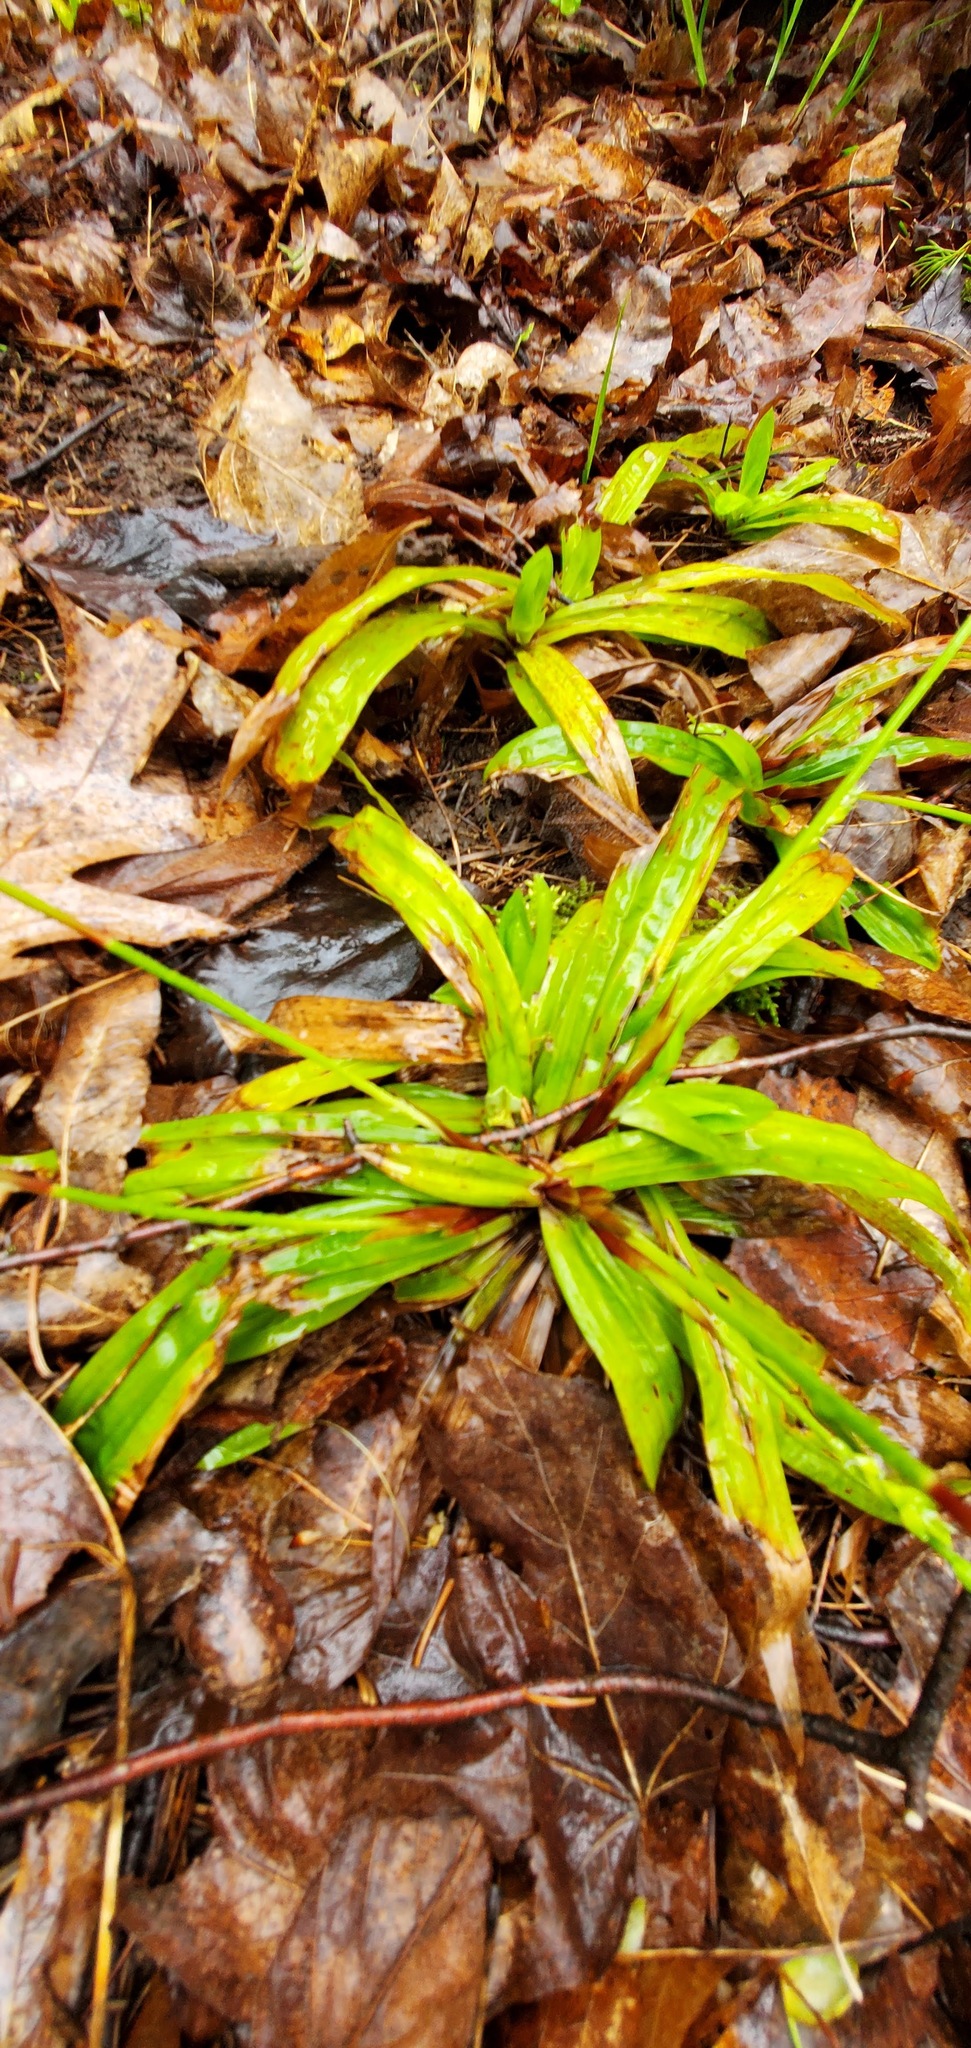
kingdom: Plantae
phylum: Tracheophyta
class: Liliopsida
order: Poales
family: Cyperaceae
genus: Carex
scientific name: Carex plantaginea
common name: Plantain-leaved sedge
